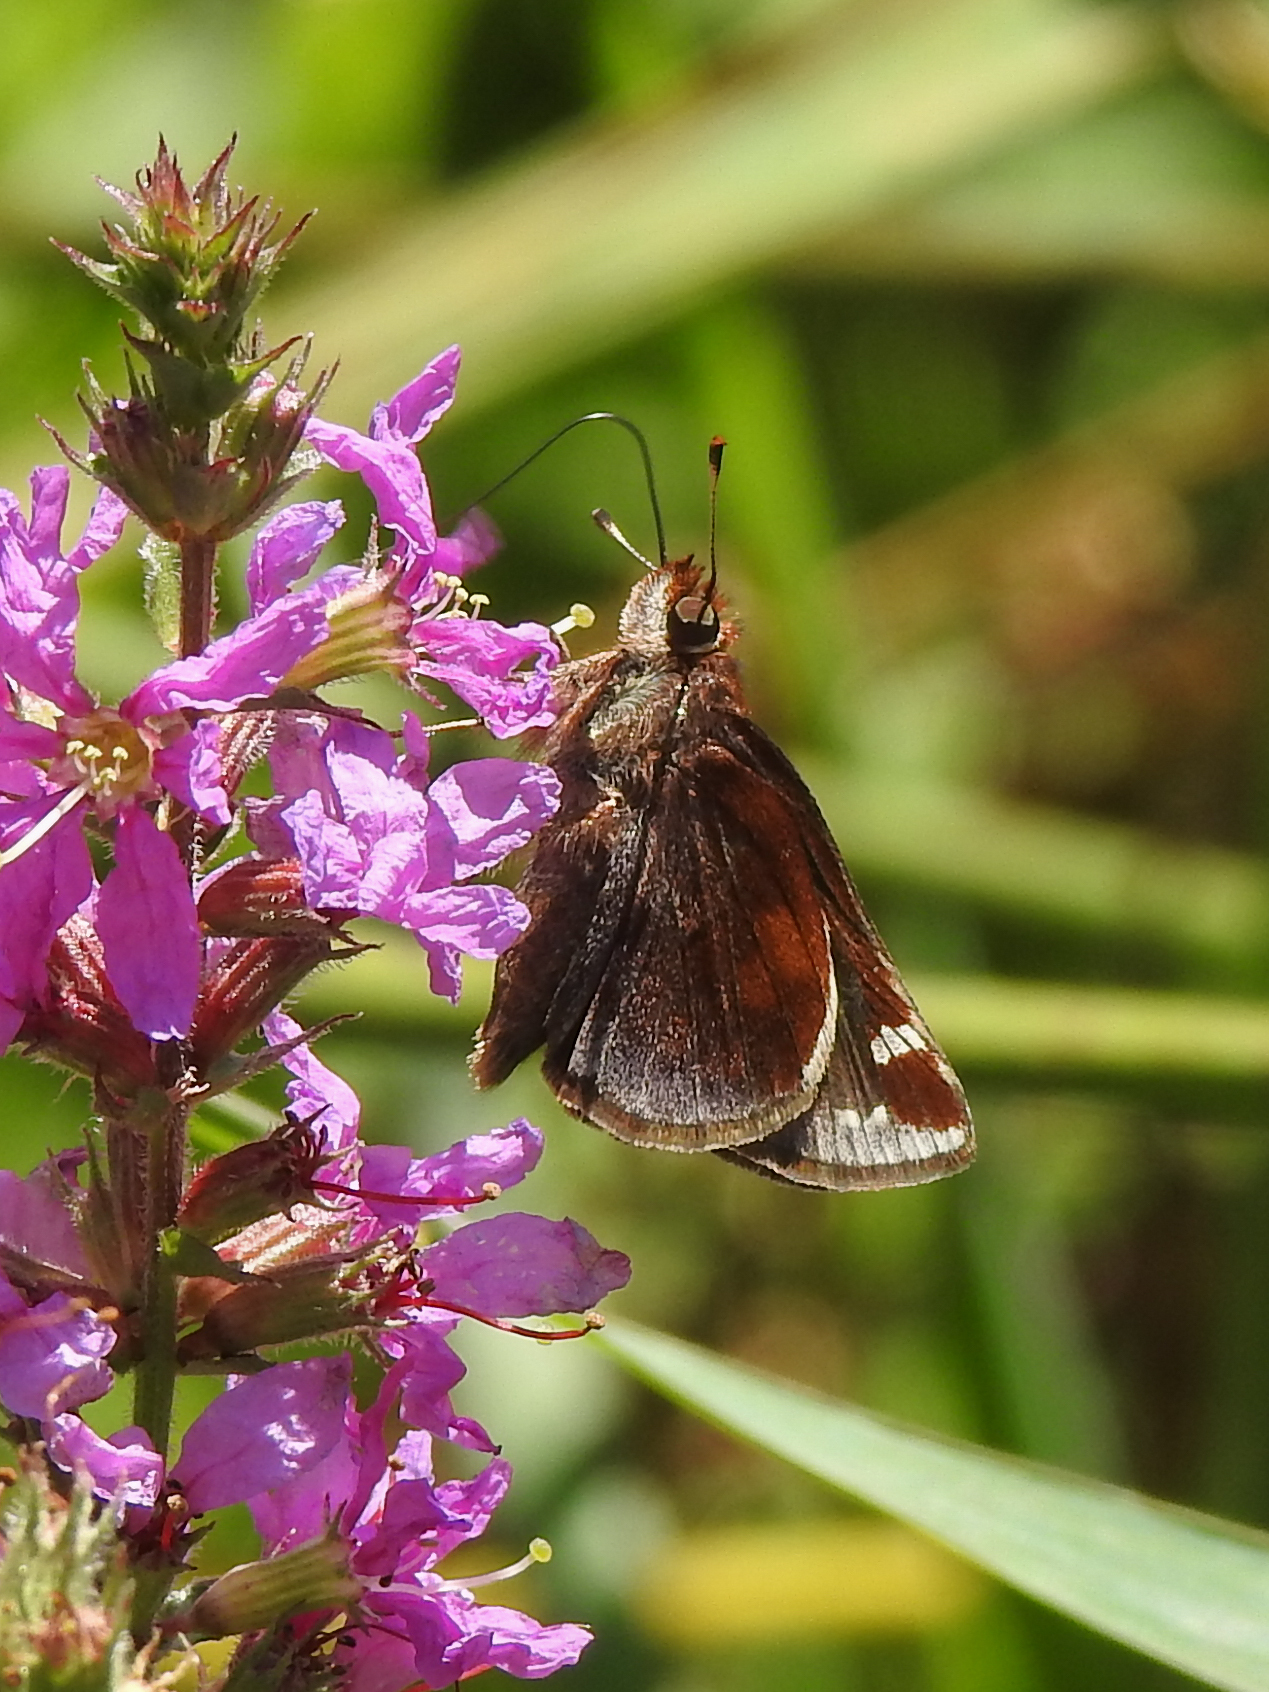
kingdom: Animalia
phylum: Arthropoda
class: Insecta
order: Lepidoptera
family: Hesperiidae
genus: Lon
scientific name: Lon zabulon
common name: Zabulon skipper
